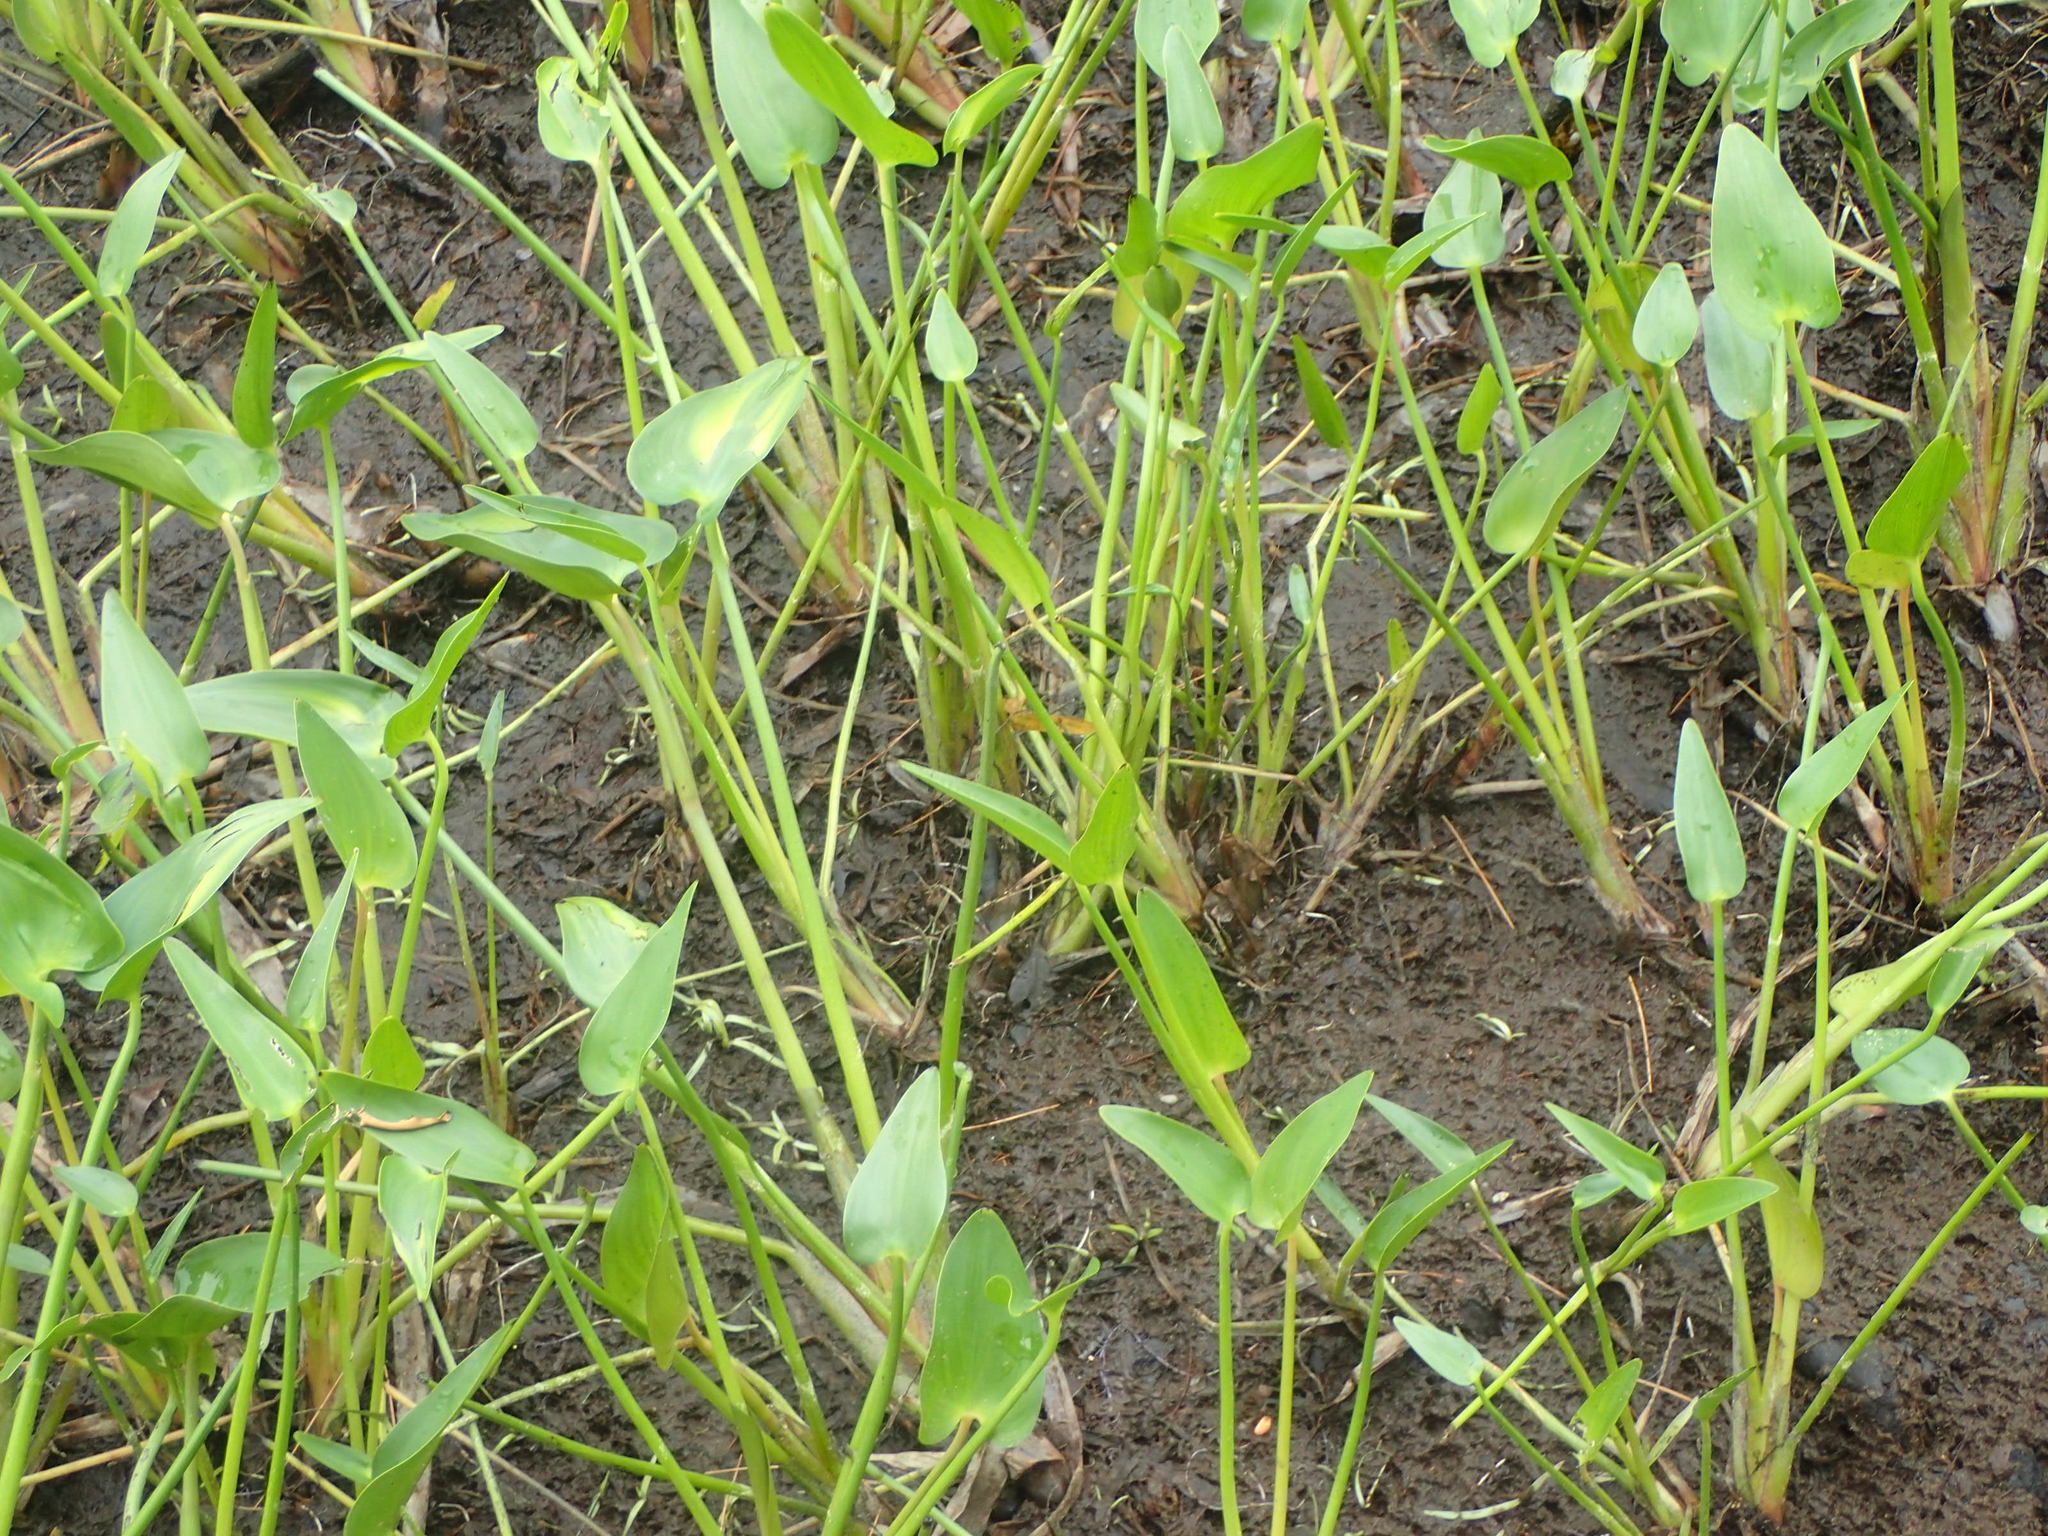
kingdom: Plantae
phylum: Tracheophyta
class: Liliopsida
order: Commelinales
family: Pontederiaceae
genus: Pontederia
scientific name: Pontederia cordata
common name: Pickerelweed
